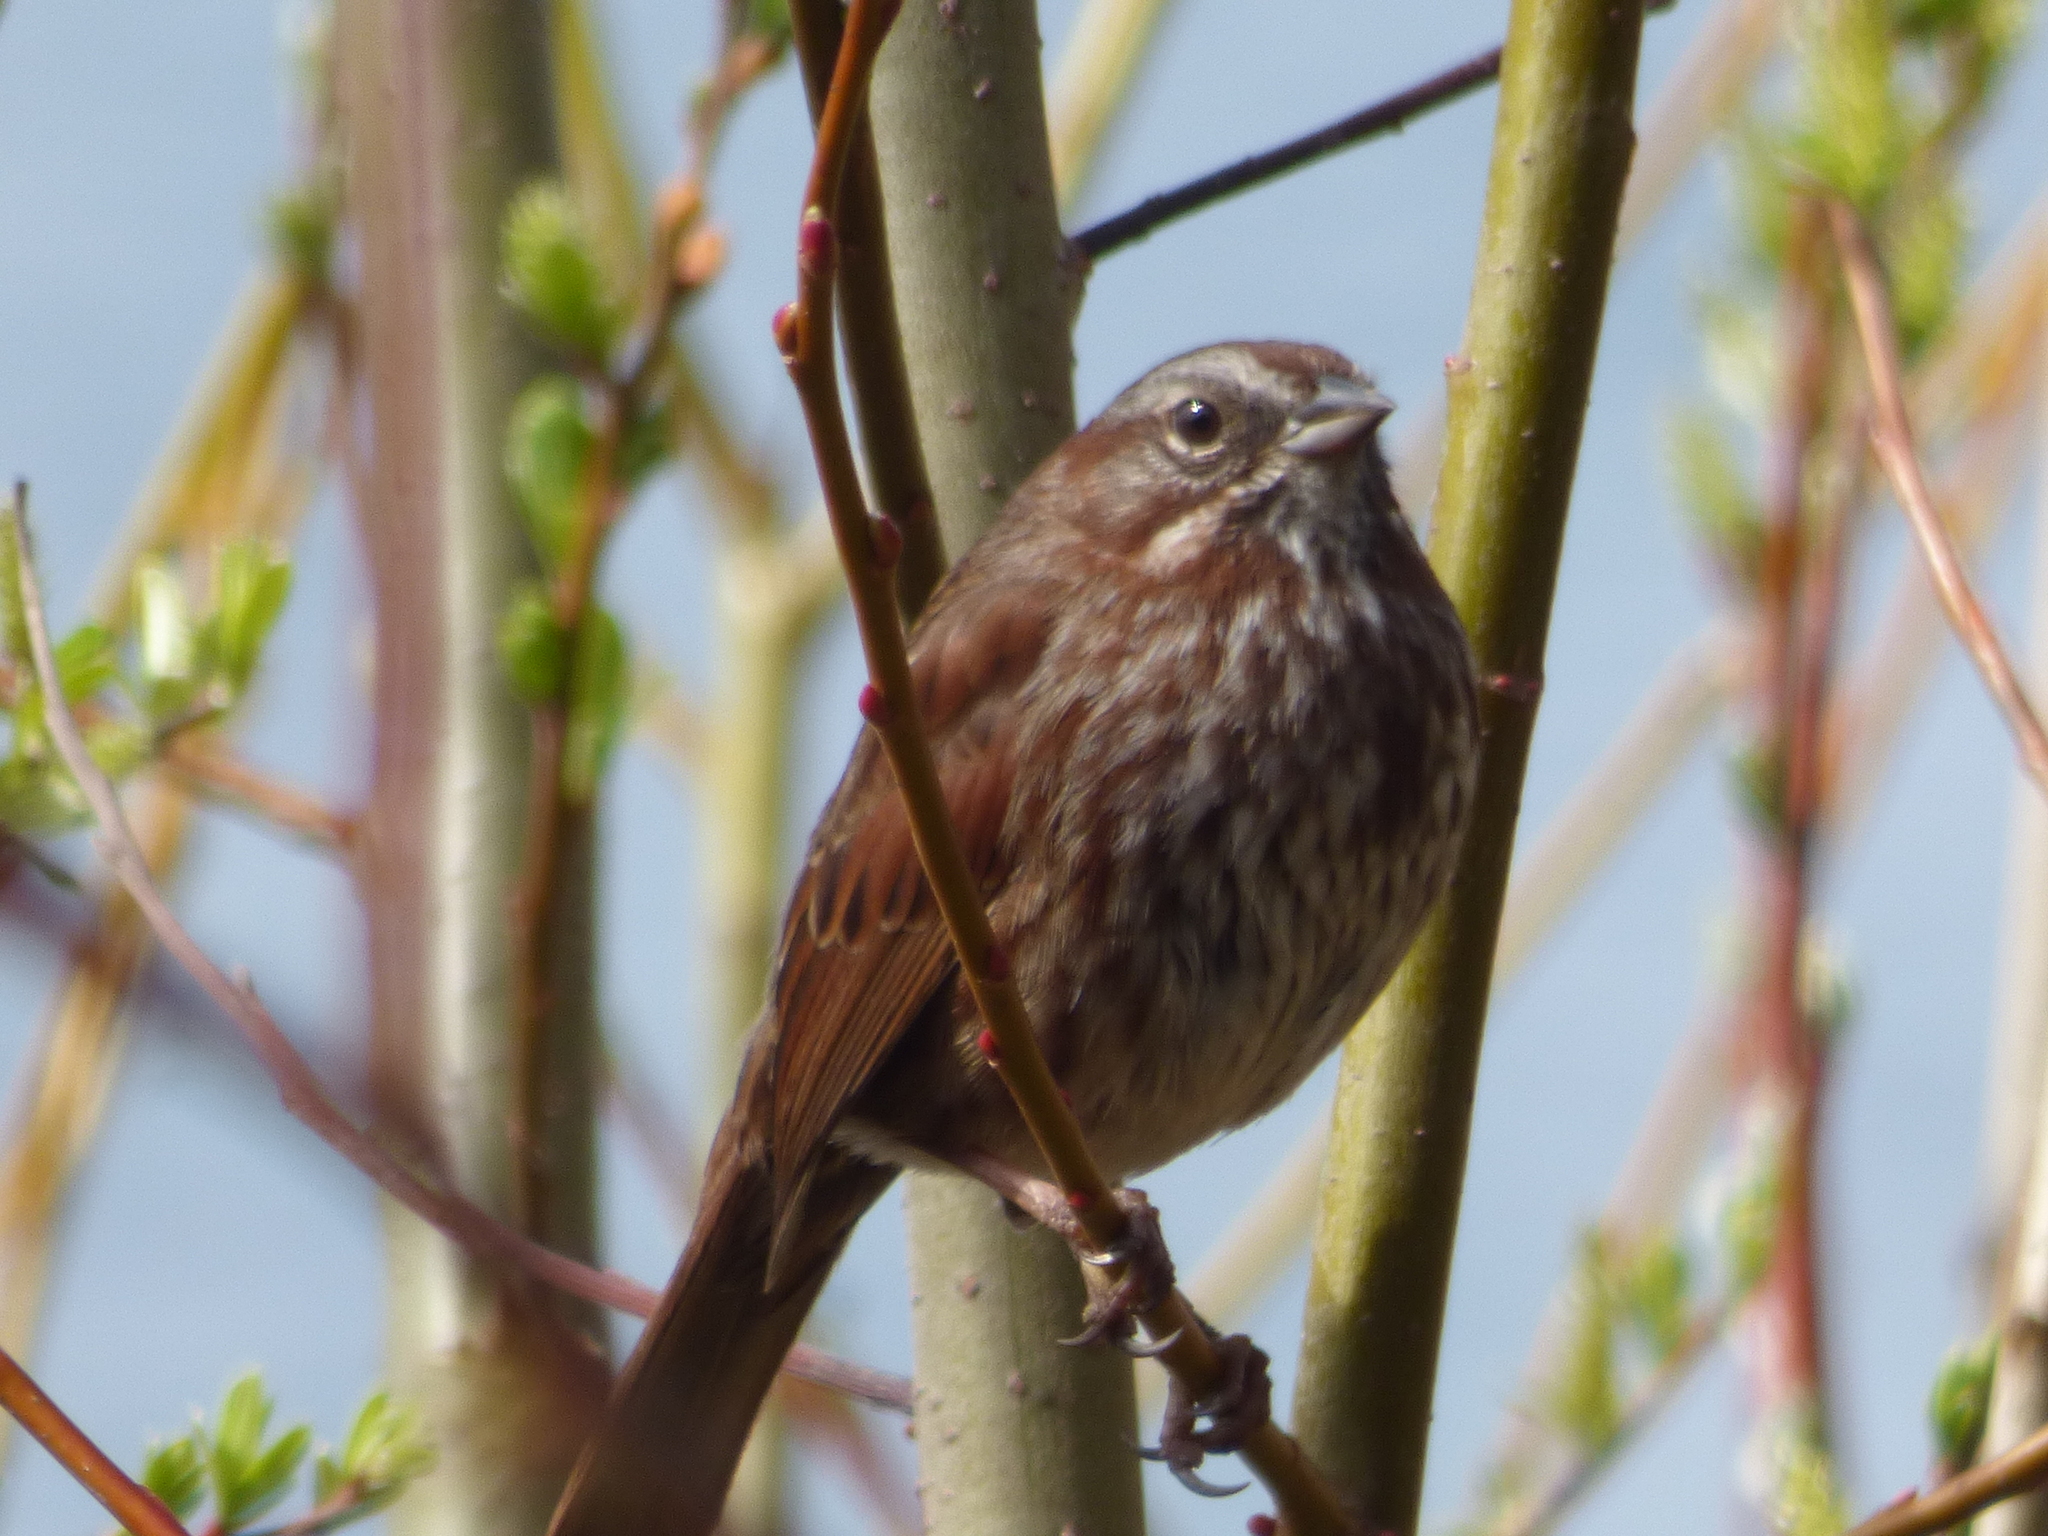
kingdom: Animalia
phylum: Chordata
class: Aves
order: Passeriformes
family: Passerellidae
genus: Melospiza
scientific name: Melospiza melodia
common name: Song sparrow
